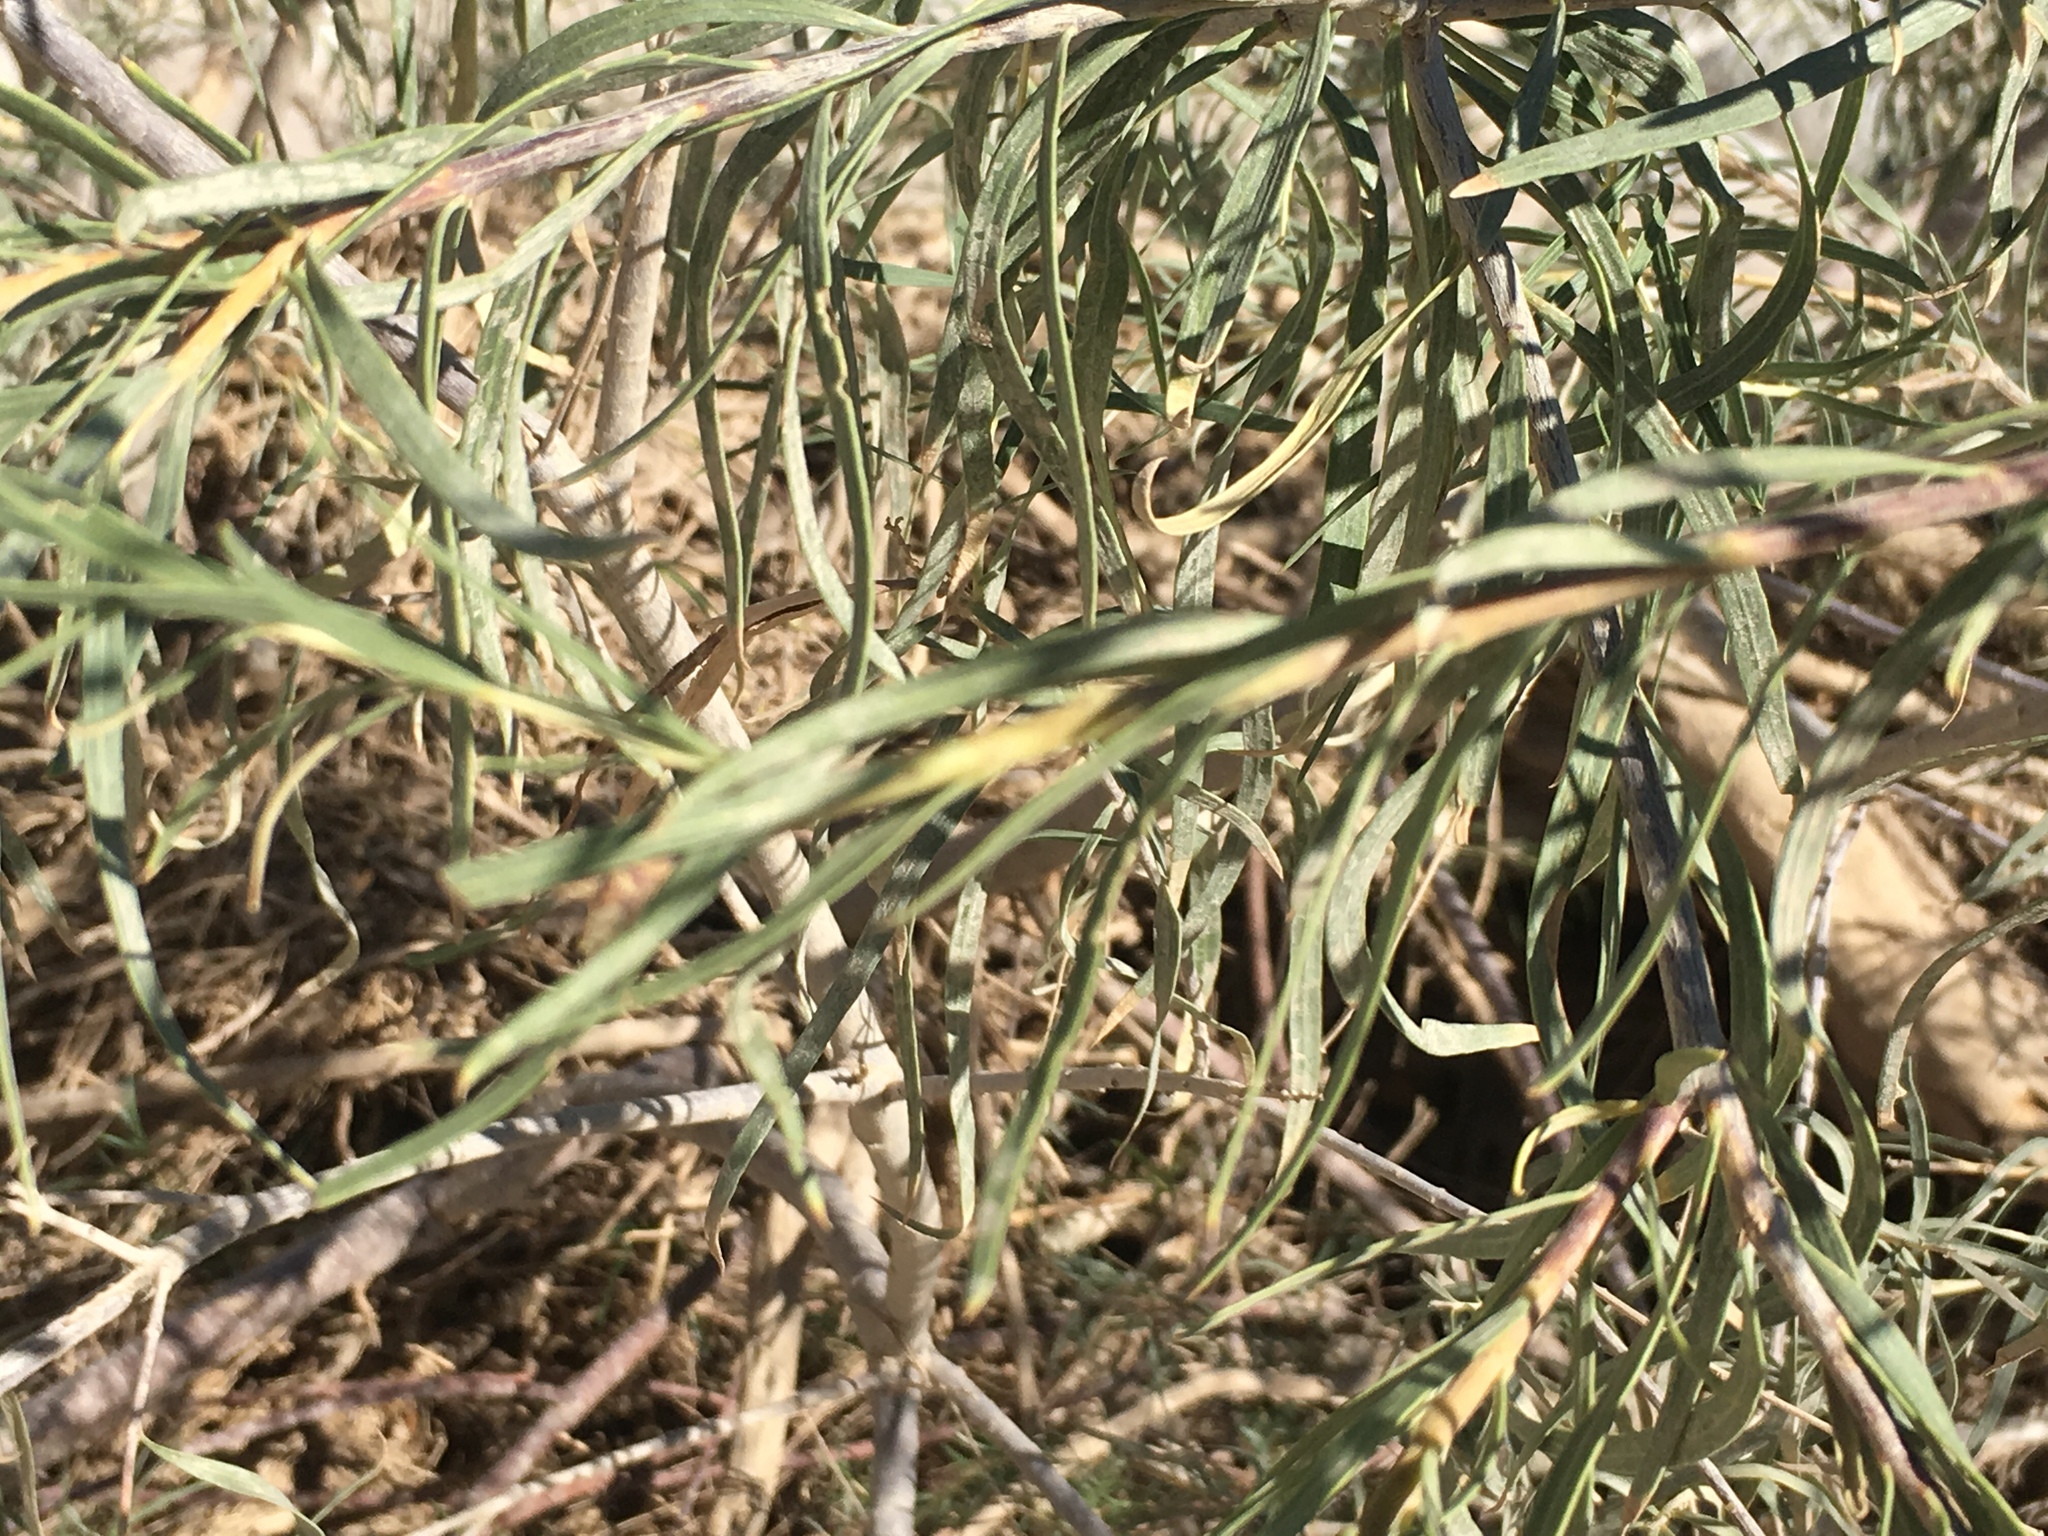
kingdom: Plantae
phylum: Tracheophyta
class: Magnoliopsida
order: Lamiales
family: Bignoniaceae
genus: Chilopsis
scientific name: Chilopsis linearis
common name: Desert-willow
